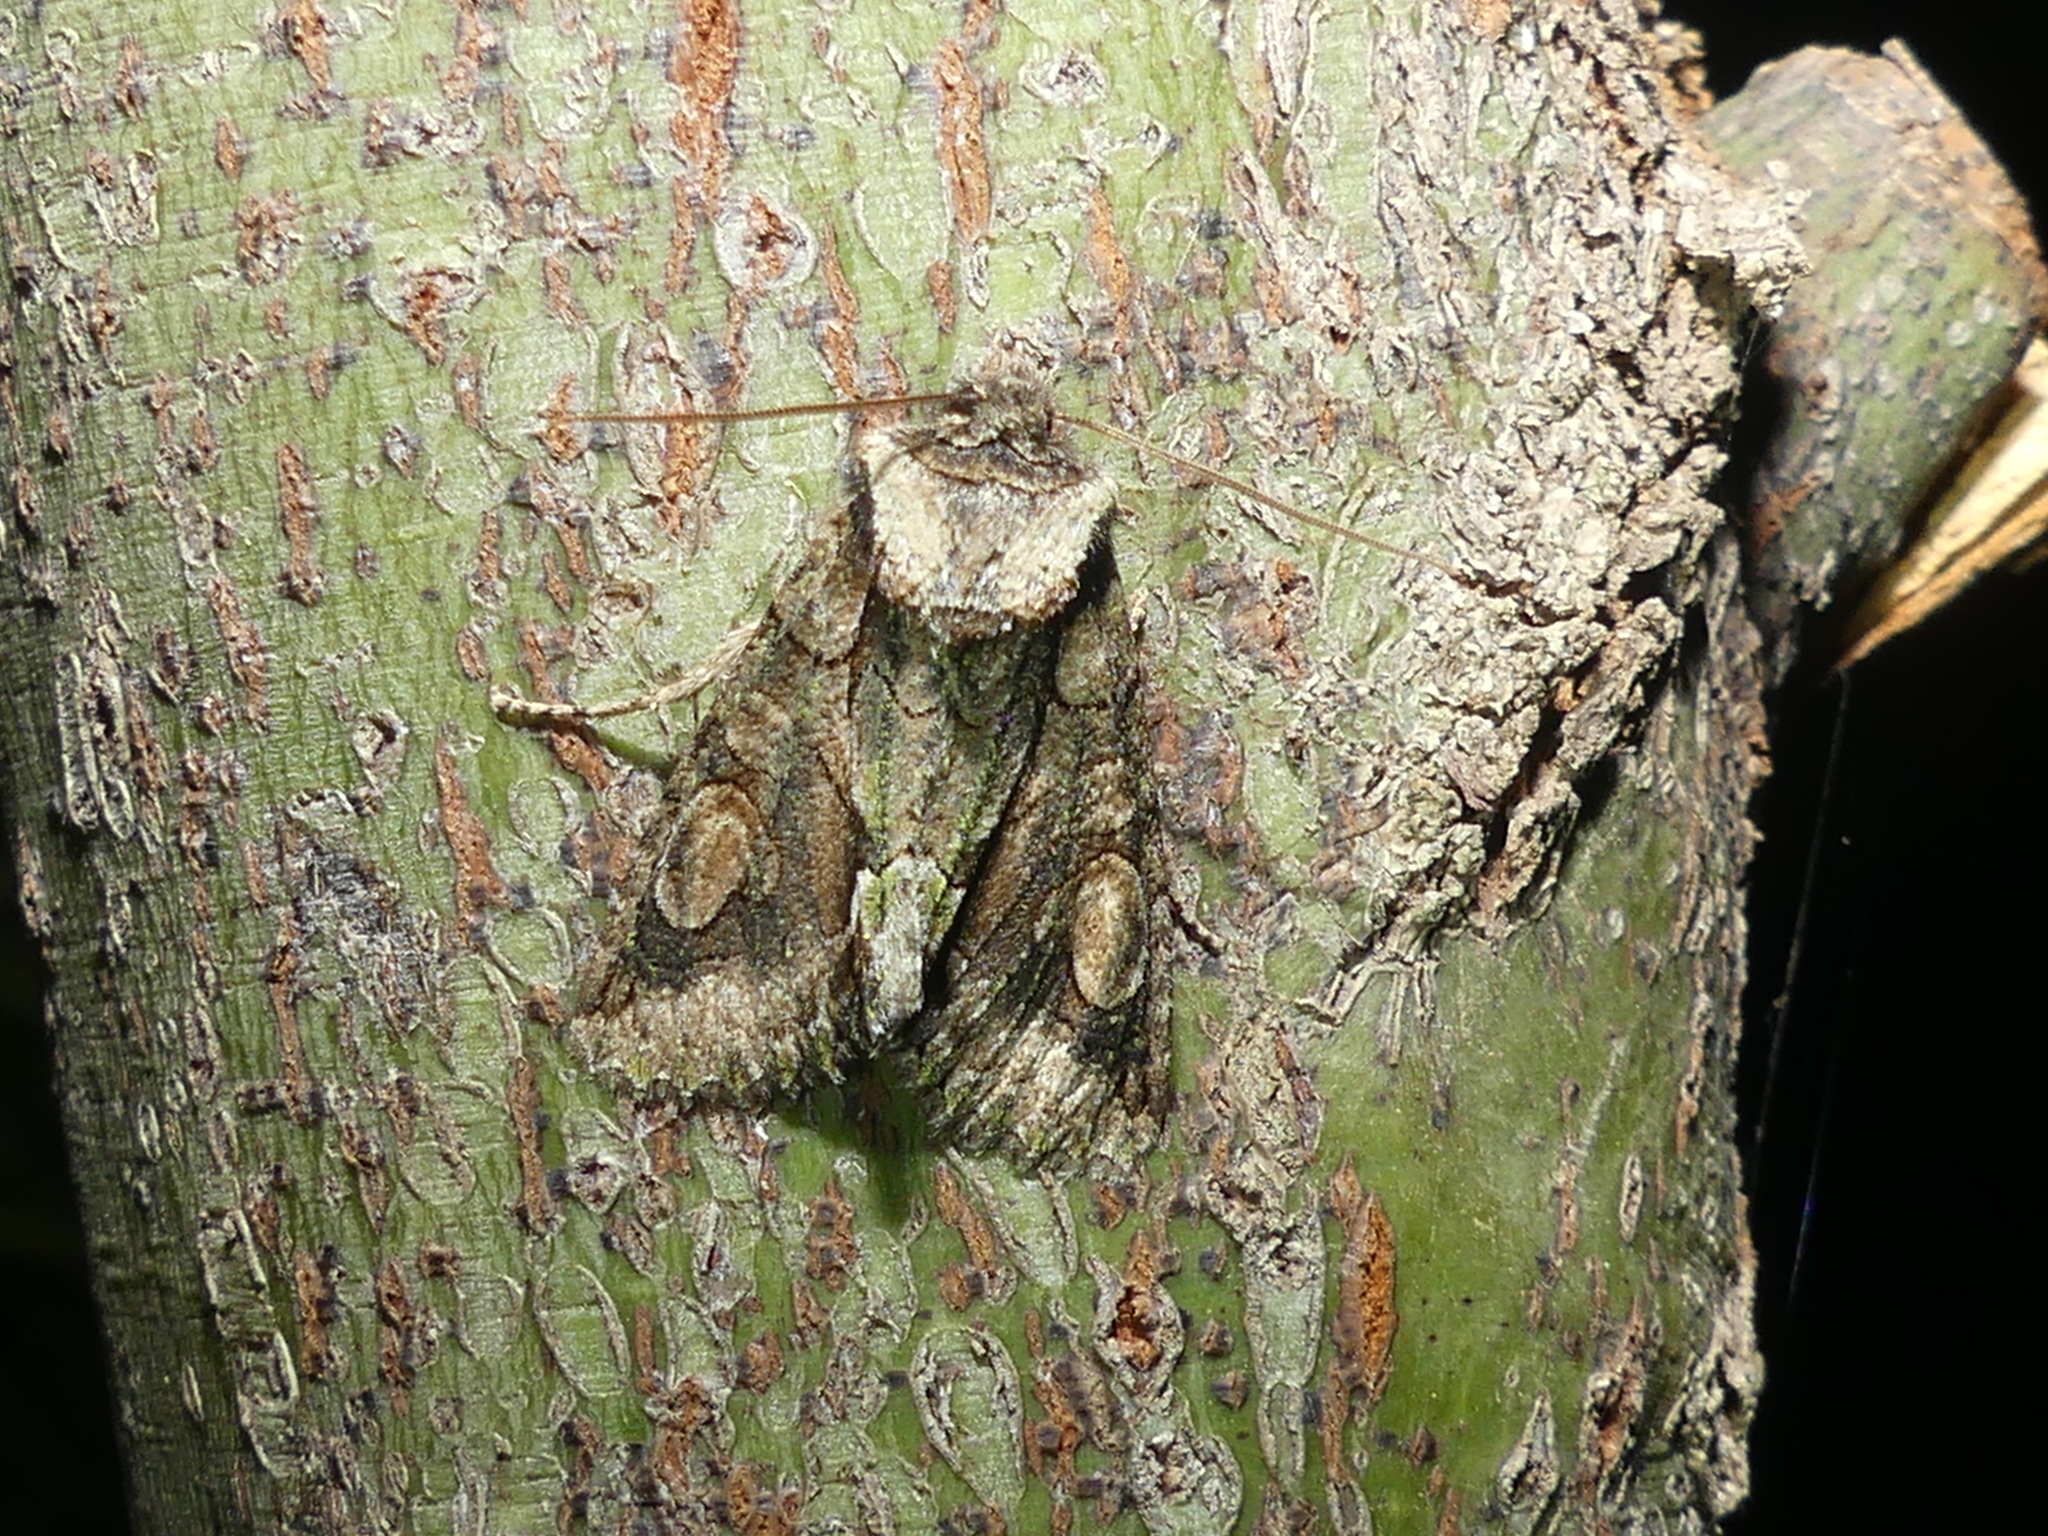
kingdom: Animalia
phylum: Arthropoda
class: Insecta
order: Lepidoptera
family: Noctuidae
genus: Allophyes
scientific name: Allophyes oxyacanthae
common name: Green-brindled crescent
